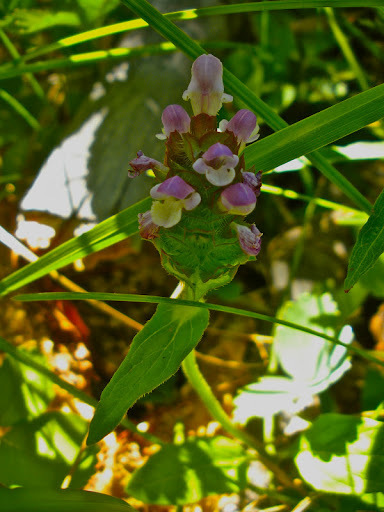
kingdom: Plantae
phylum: Tracheophyta
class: Magnoliopsida
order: Lamiales
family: Lamiaceae
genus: Prunella
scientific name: Prunella vulgaris
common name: Heal-all
